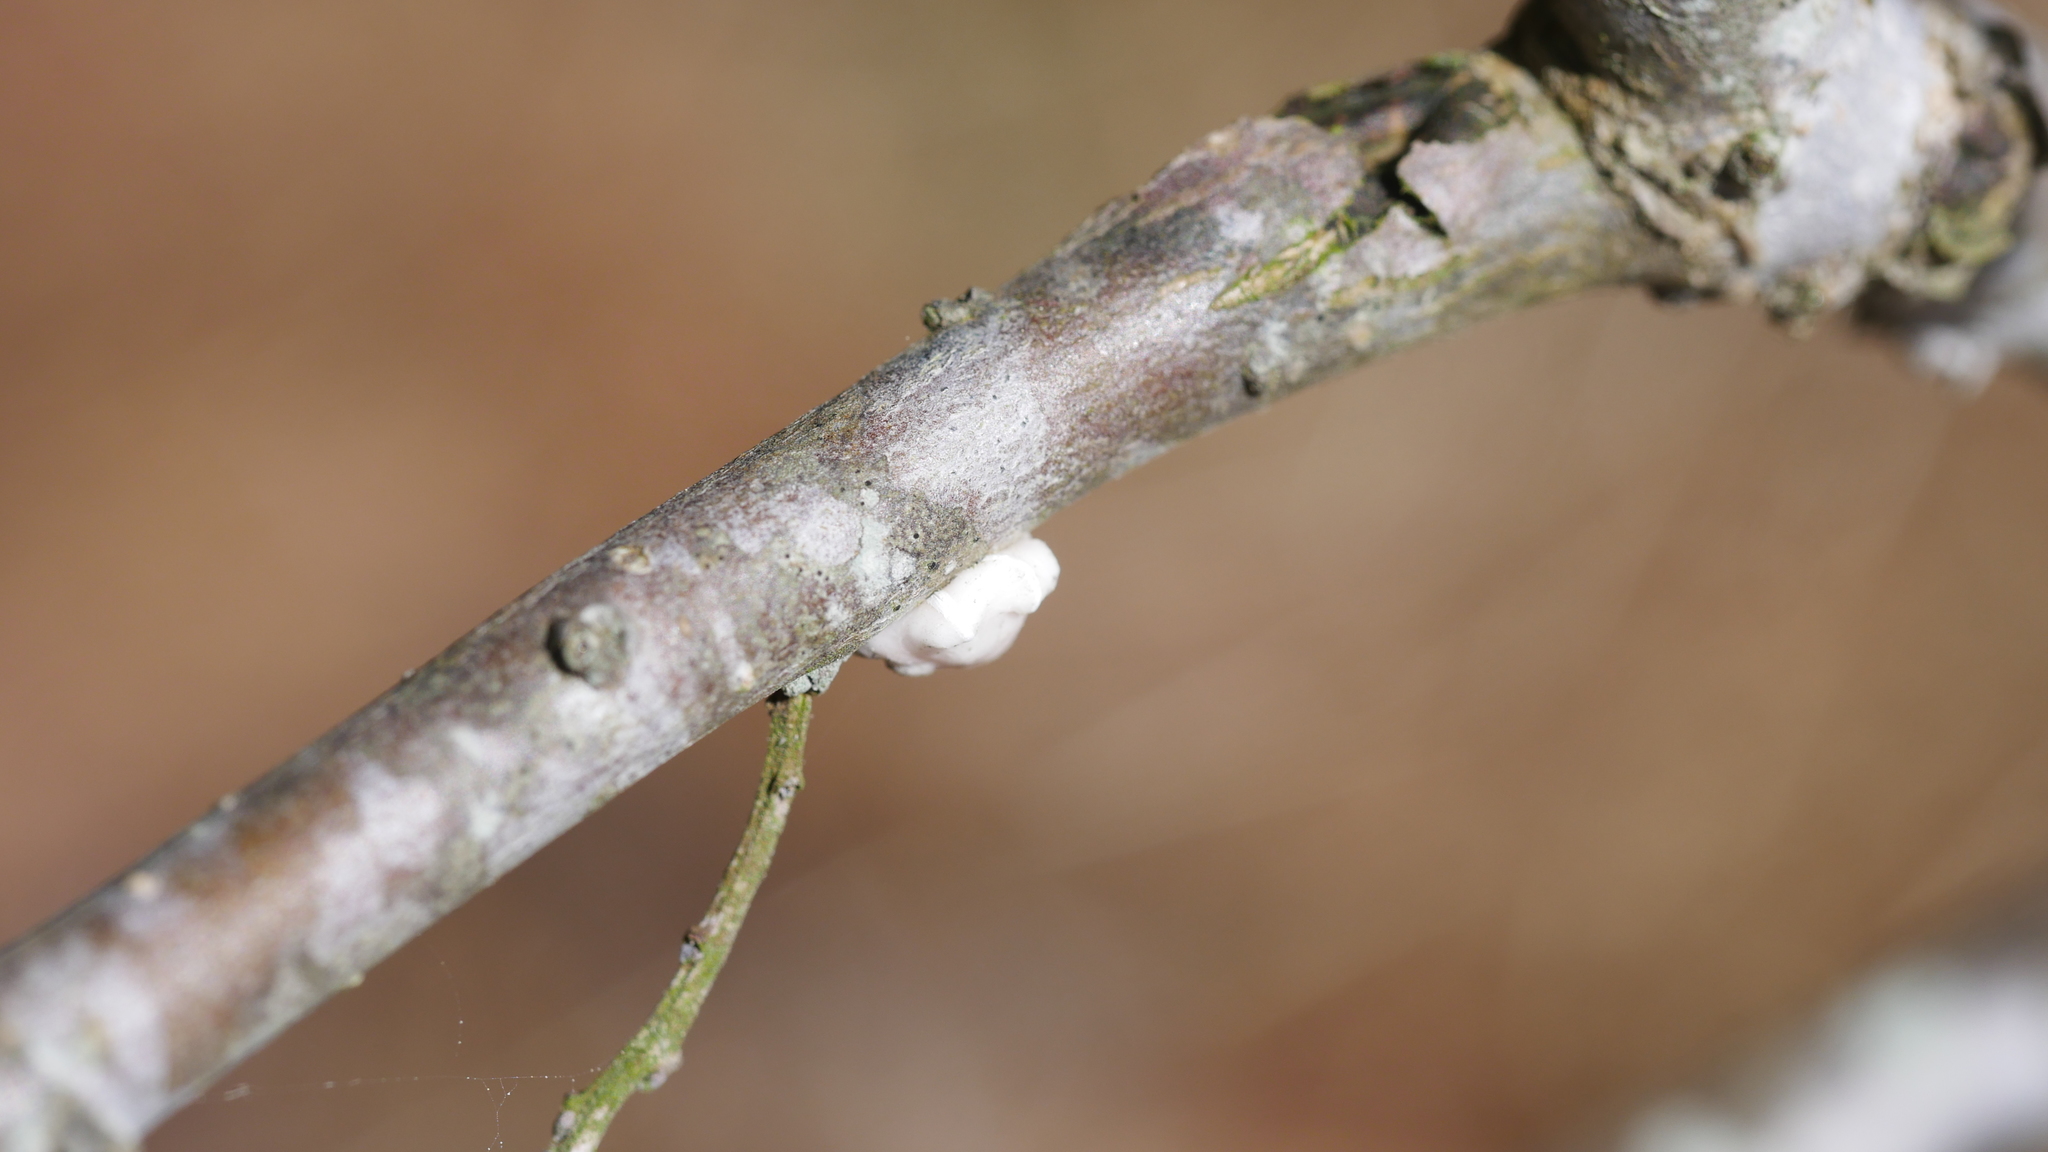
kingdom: Animalia
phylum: Arthropoda
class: Insecta
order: Hemiptera
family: Coccidae
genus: Ceroplastes
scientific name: Ceroplastes ceriferus
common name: Indian wax scale
